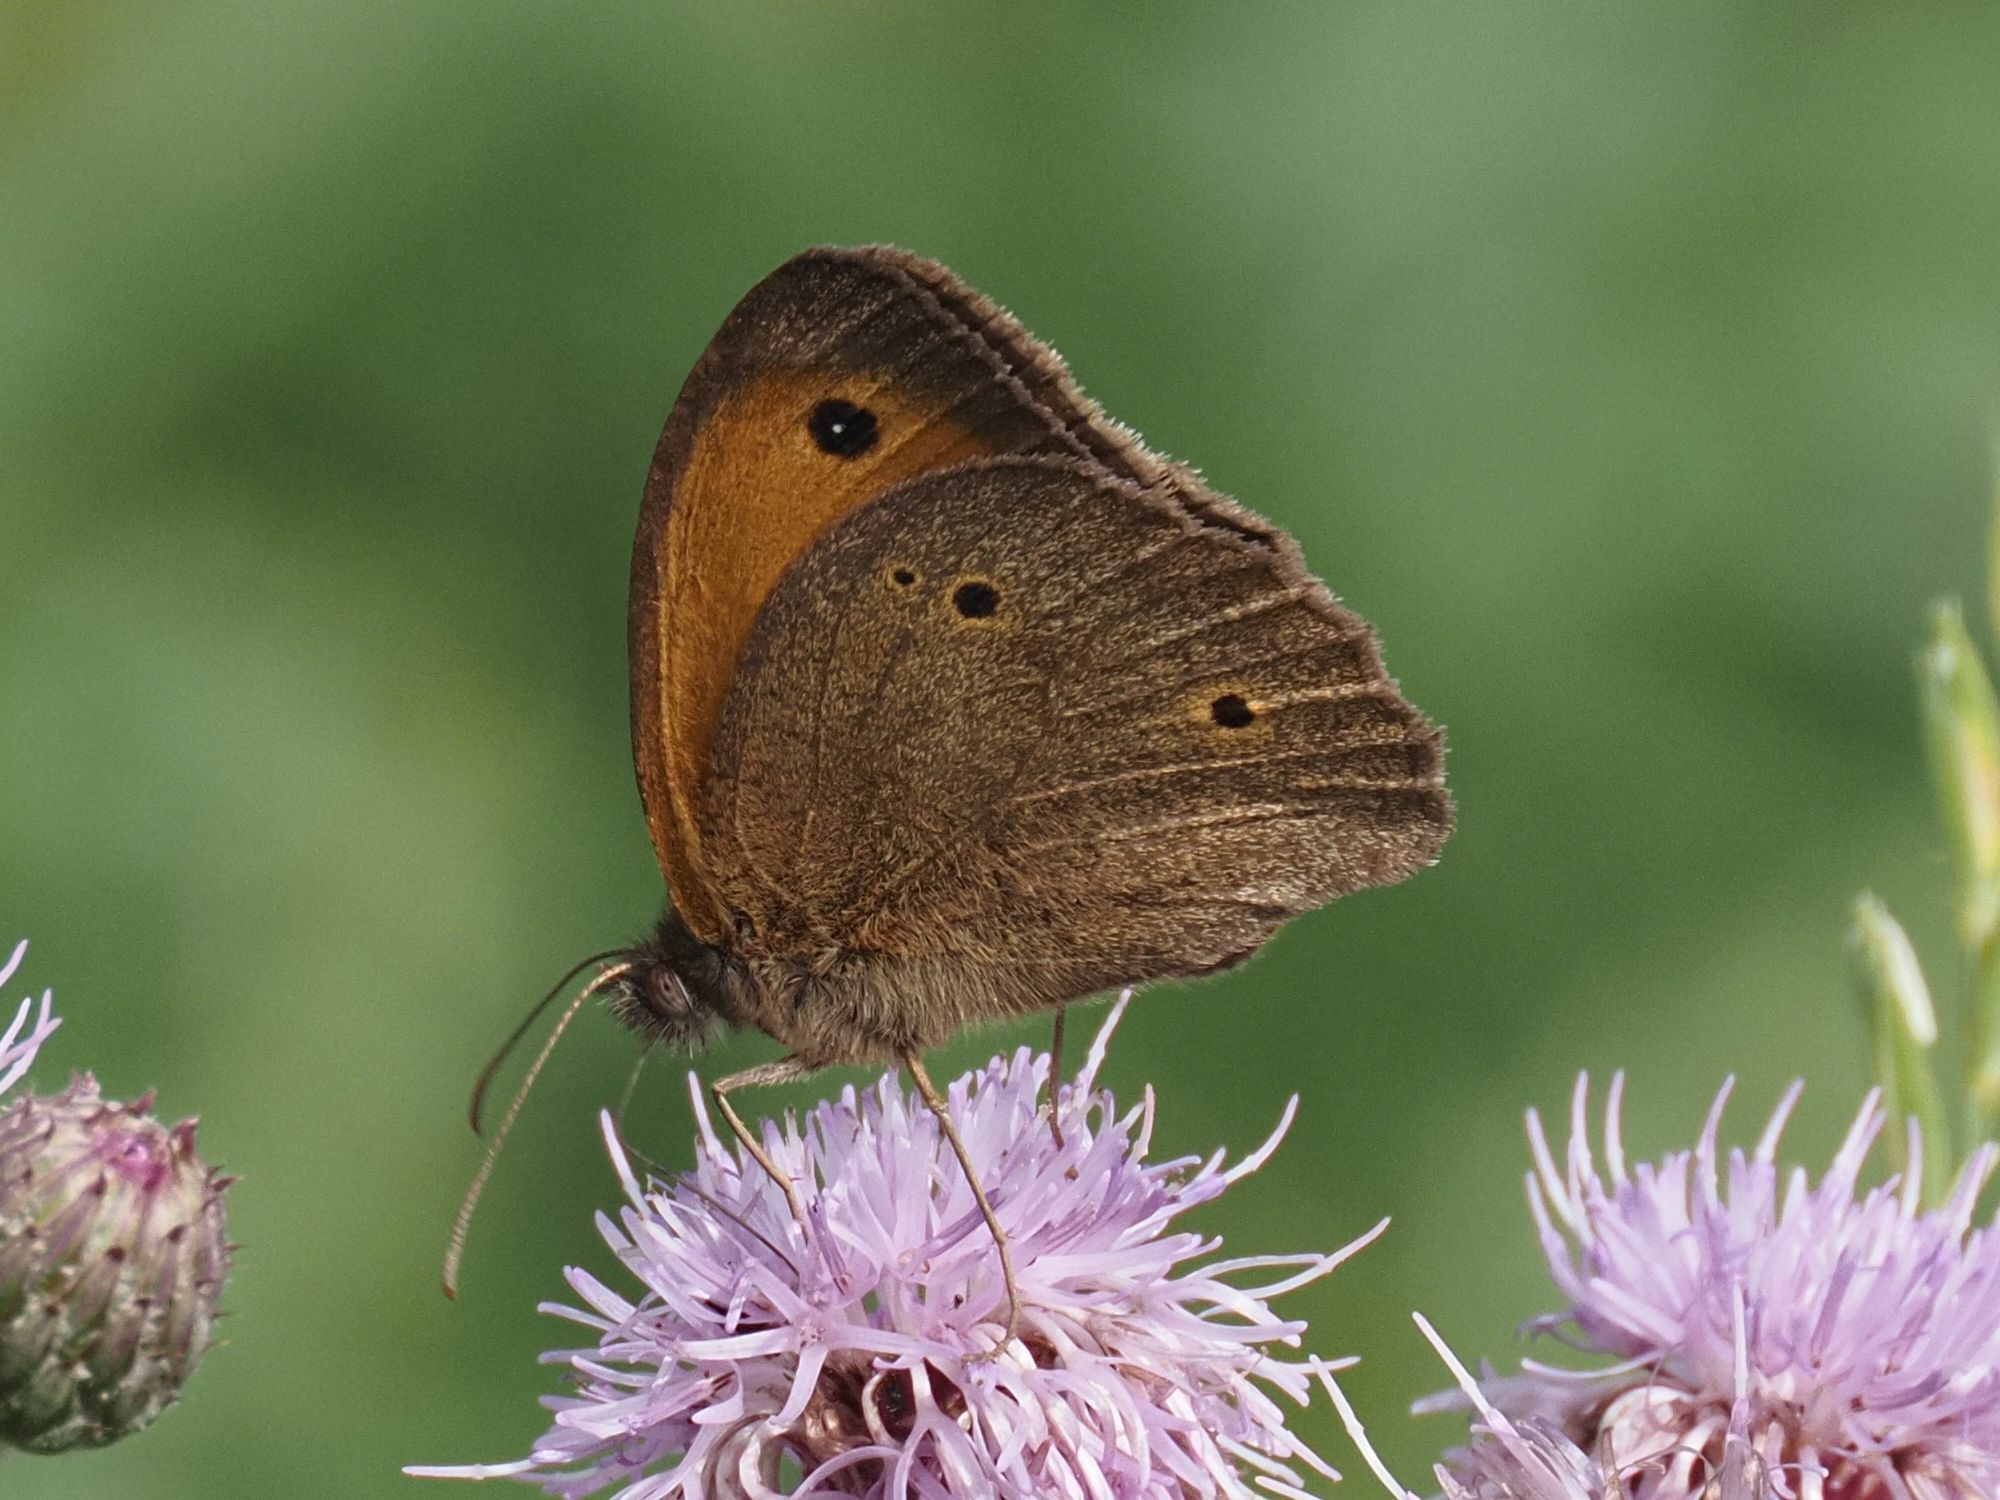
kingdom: Animalia
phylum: Arthropoda
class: Insecta
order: Lepidoptera
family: Nymphalidae
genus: Maniola
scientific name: Maniola jurtina
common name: Meadow brown
